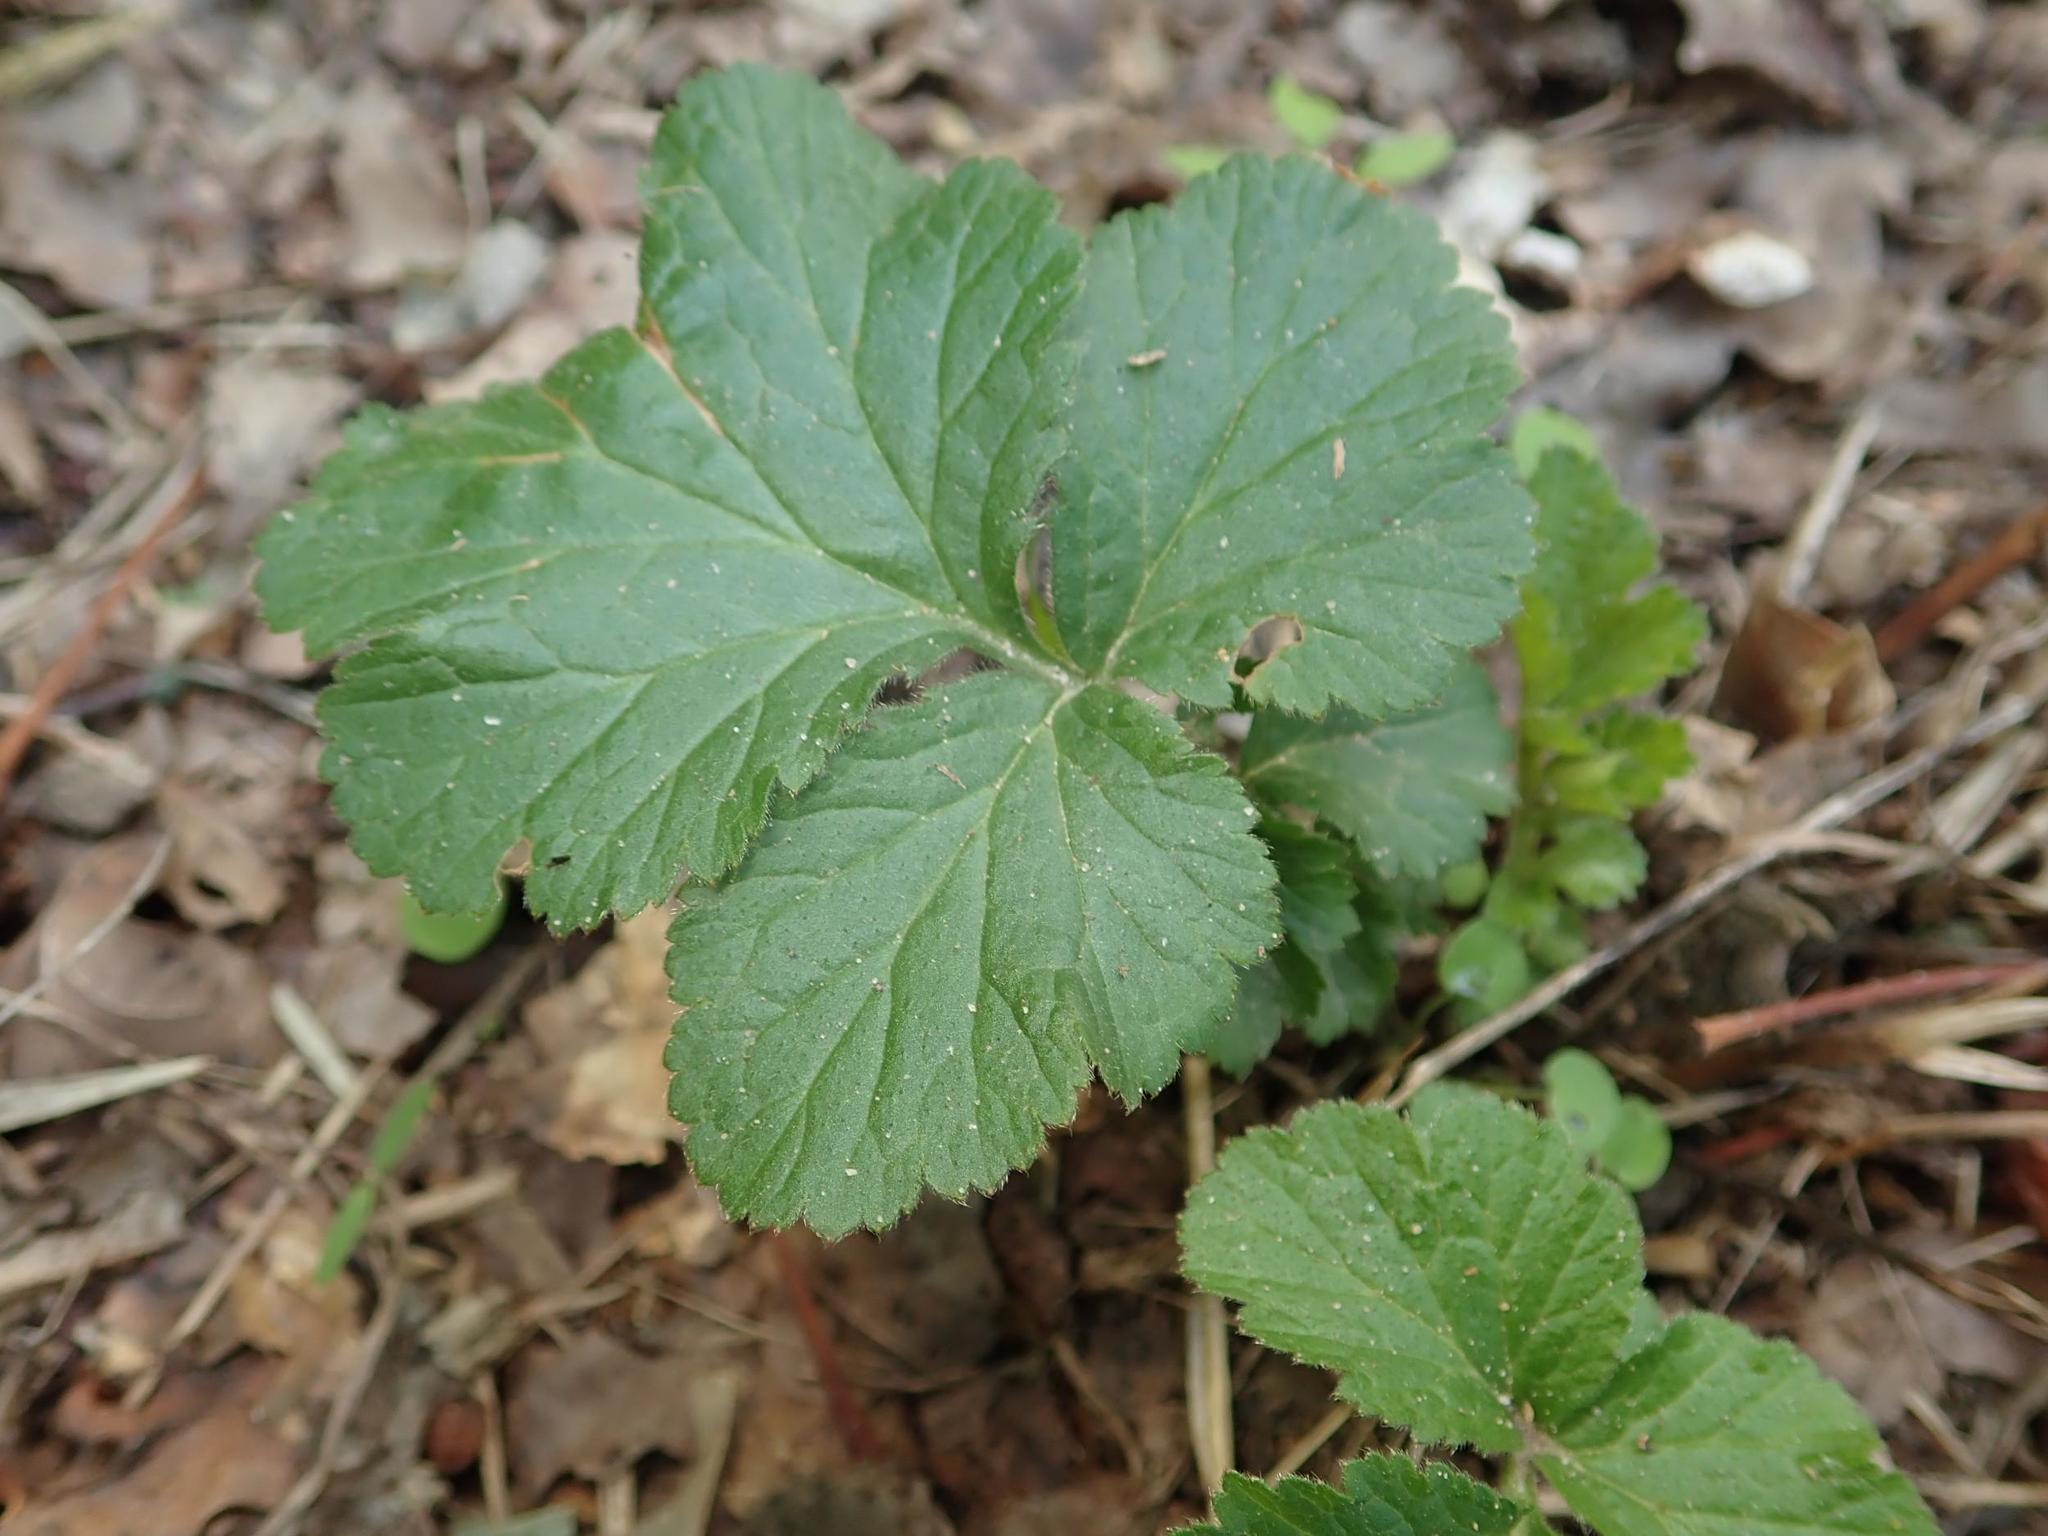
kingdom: Plantae
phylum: Tracheophyta
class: Magnoliopsida
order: Rosales
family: Rosaceae
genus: Geum
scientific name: Geum urbanum
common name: Wood avens
